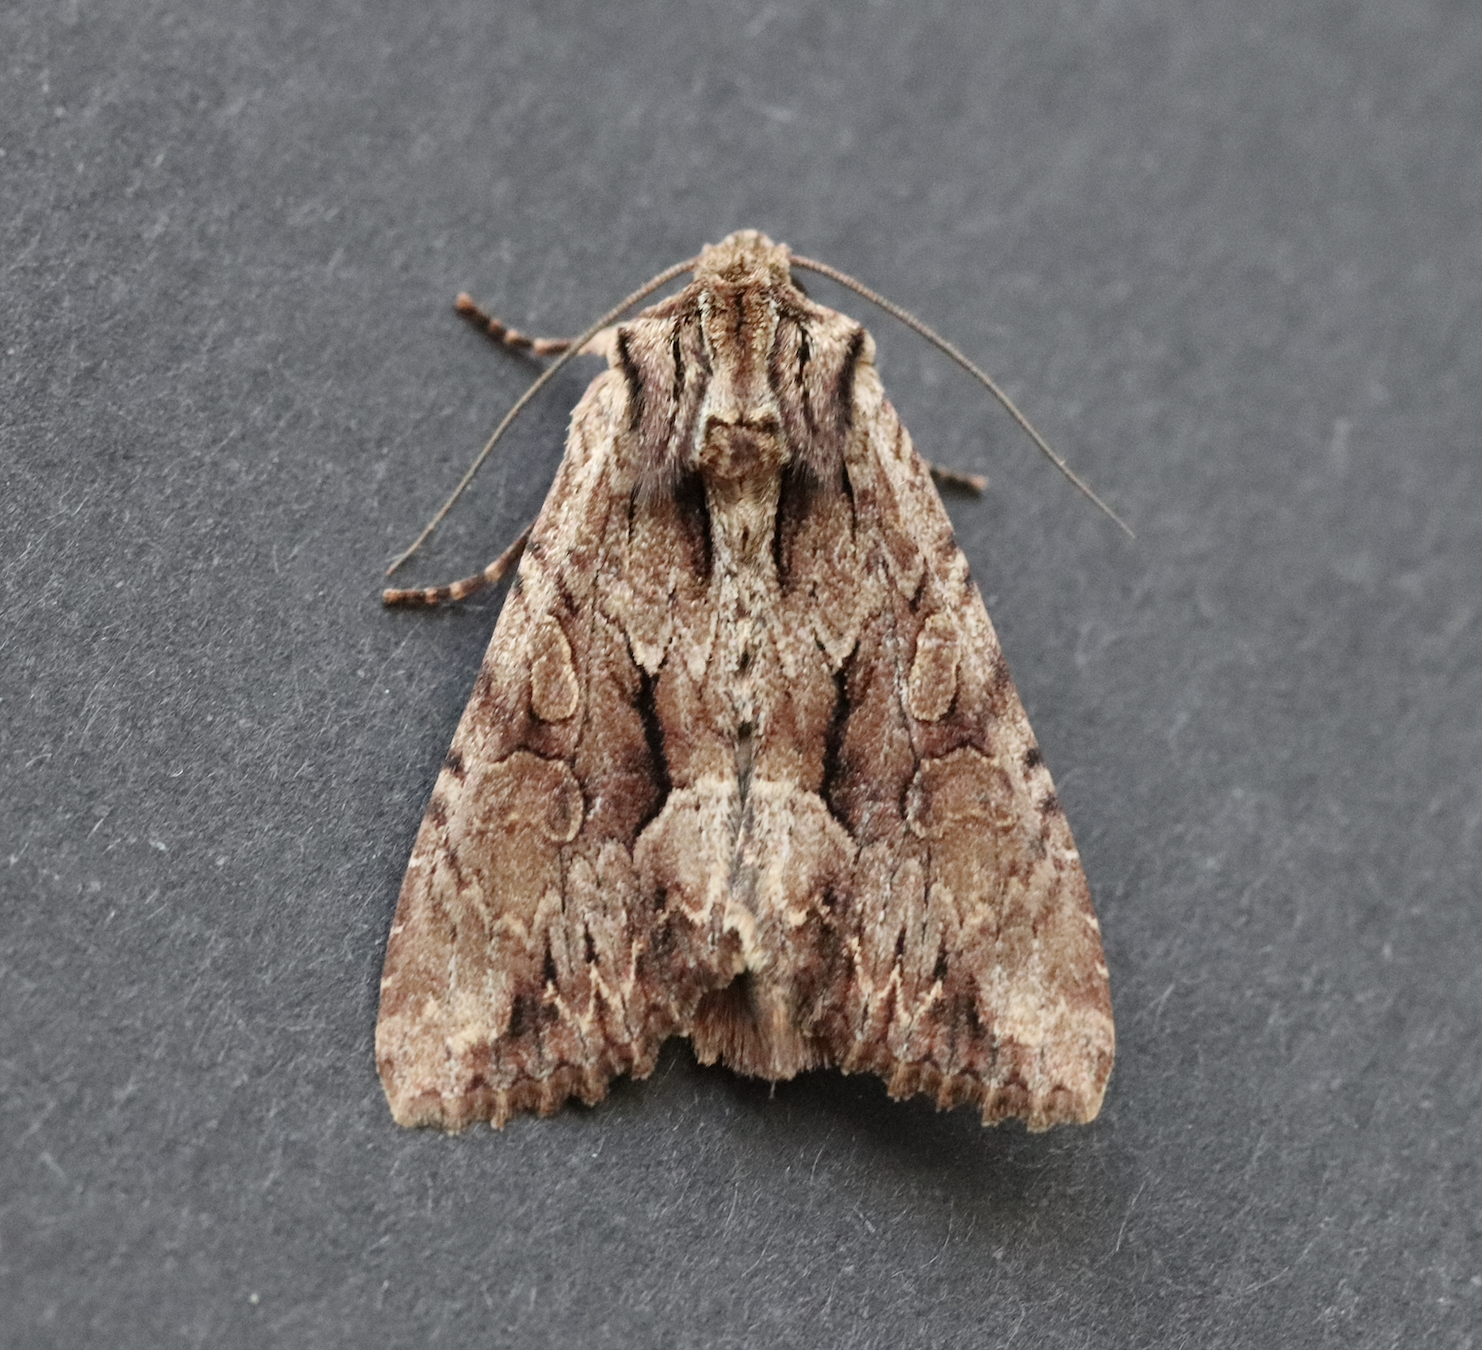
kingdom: Animalia
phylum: Arthropoda
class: Insecta
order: Lepidoptera
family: Noctuidae
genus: Apamea
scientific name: Apamea monoglypha
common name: Dark arches
